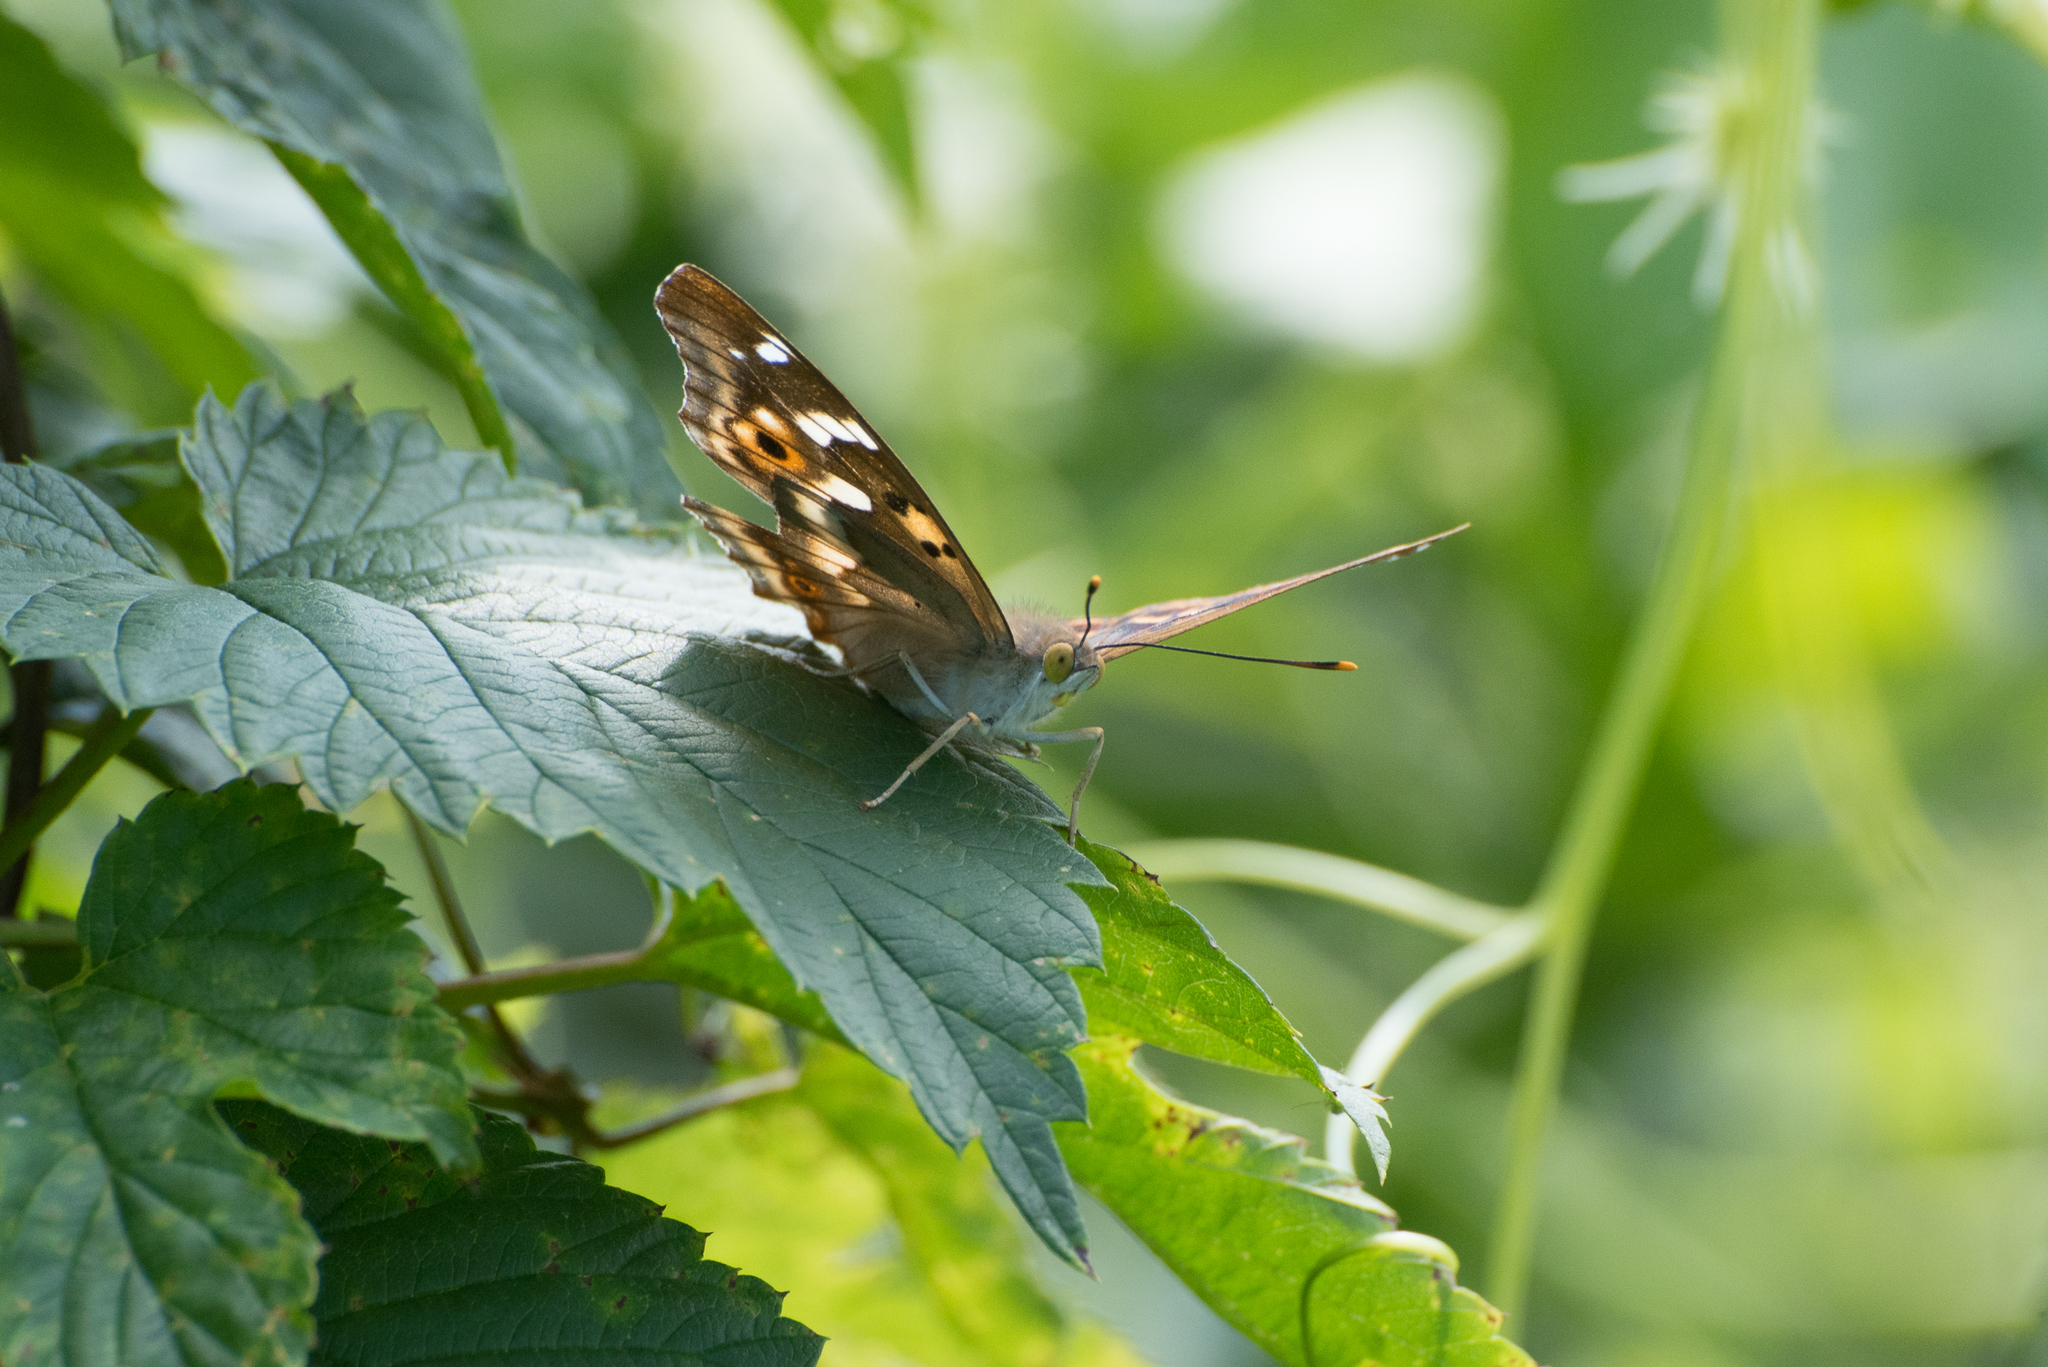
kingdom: Animalia
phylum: Arthropoda
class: Insecta
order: Lepidoptera
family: Nymphalidae
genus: Apatura
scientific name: Apatura ilia
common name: Lesser purple emperor
